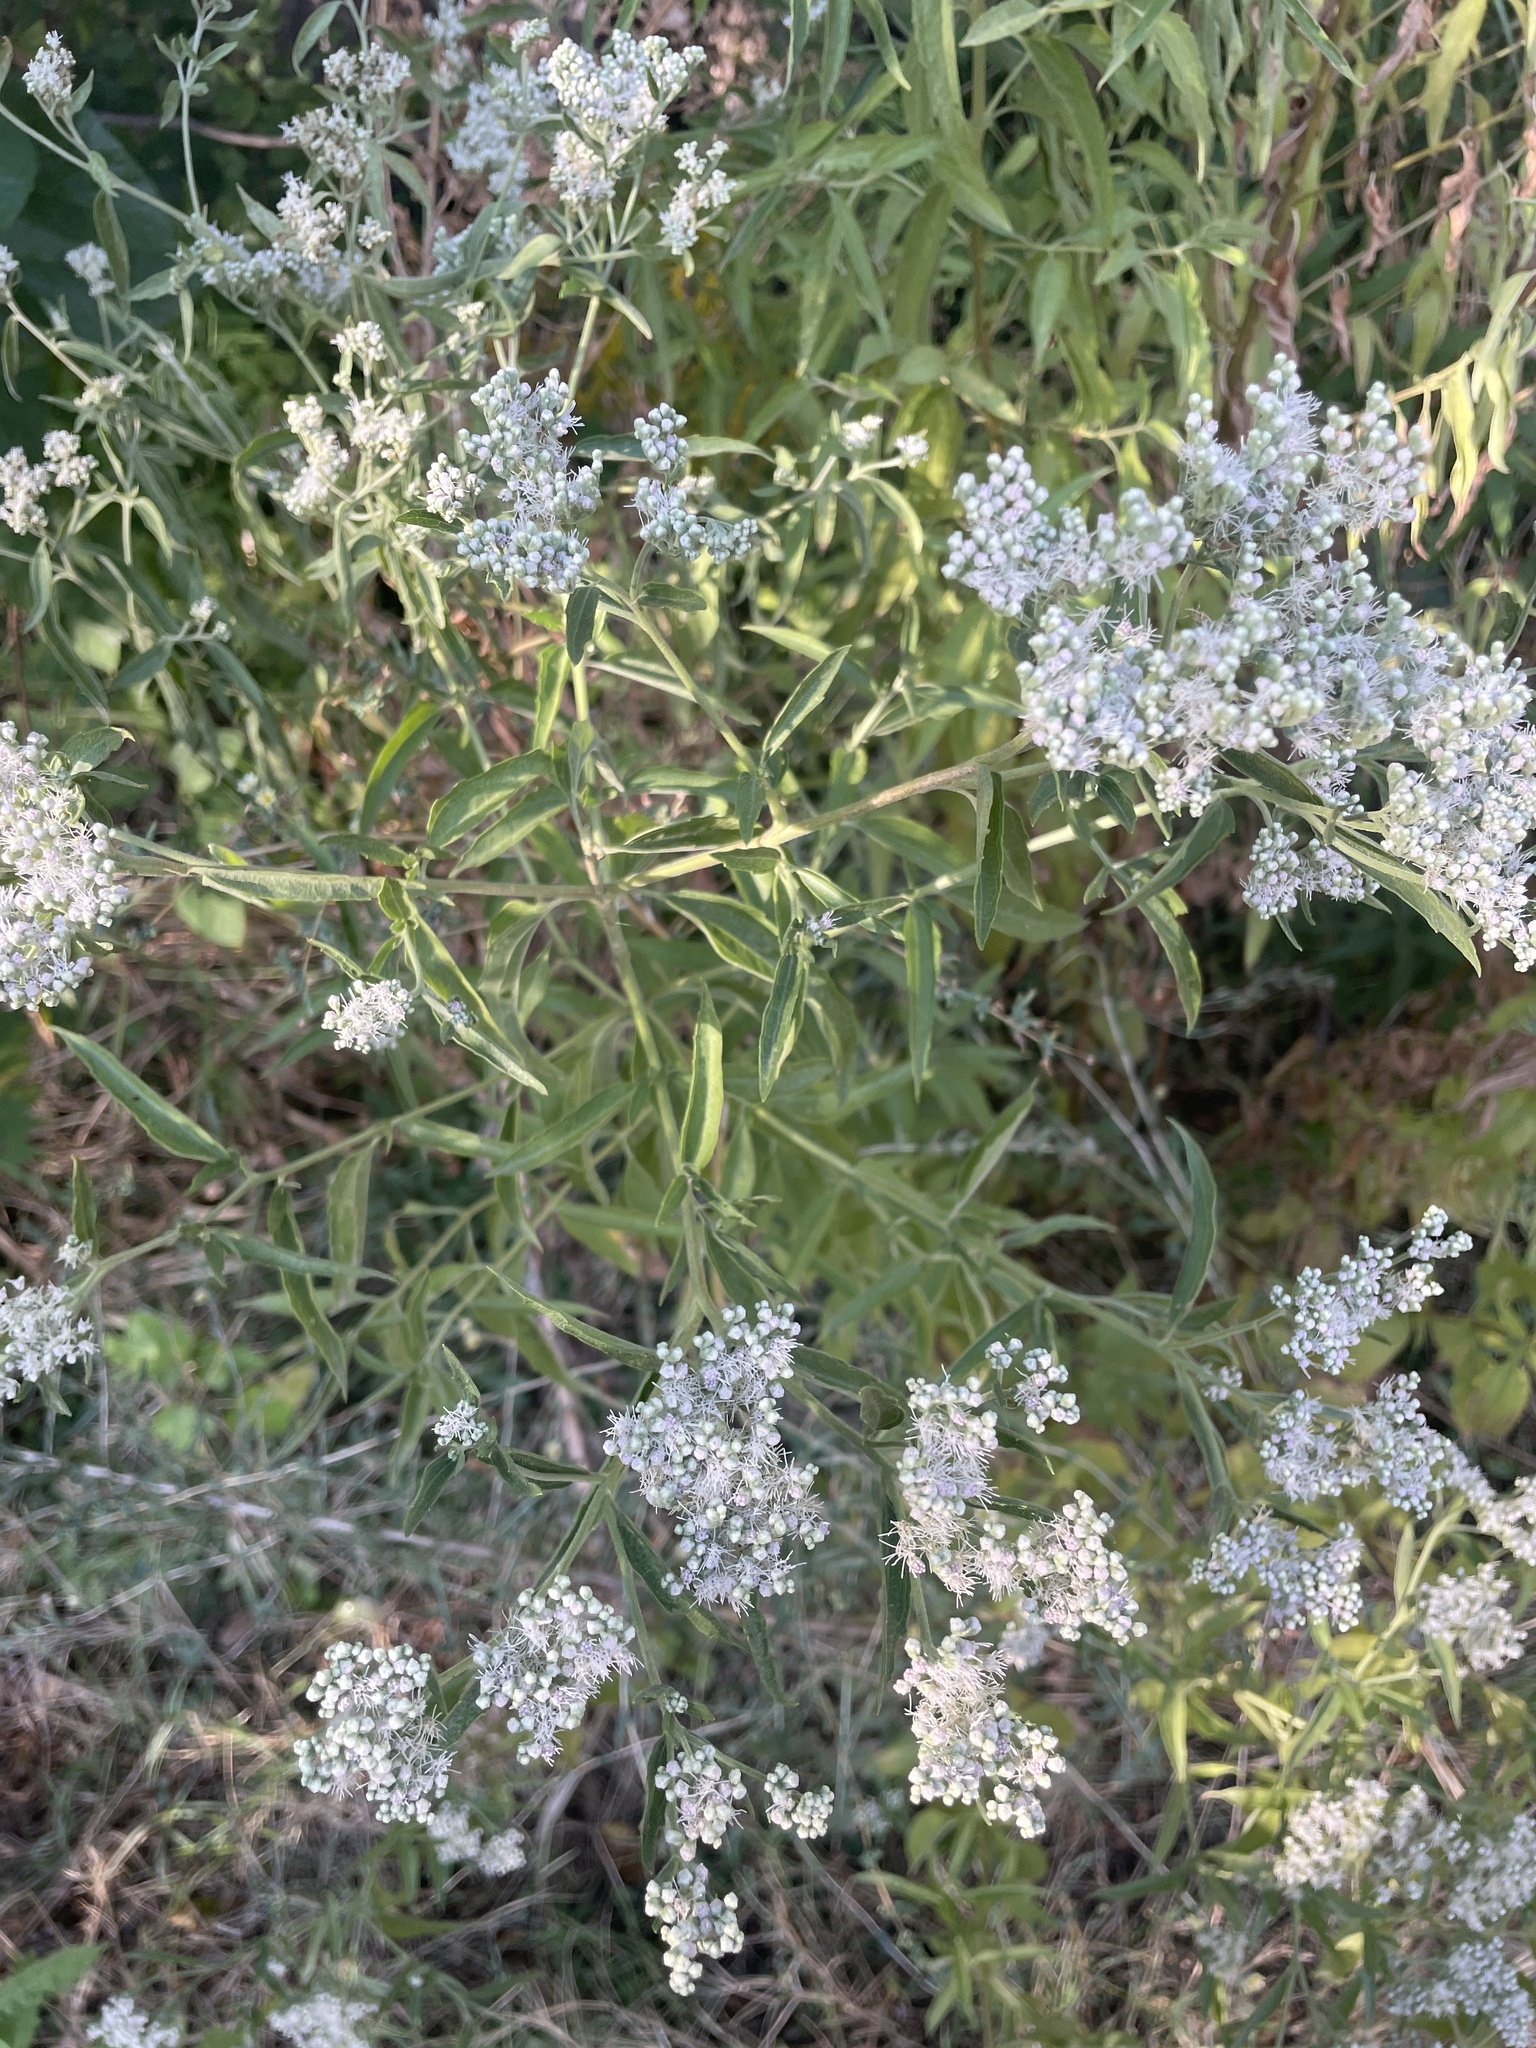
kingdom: Plantae
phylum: Tracheophyta
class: Magnoliopsida
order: Asterales
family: Asteraceae
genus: Eupatorium
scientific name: Eupatorium serotinum
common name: Late boneset
